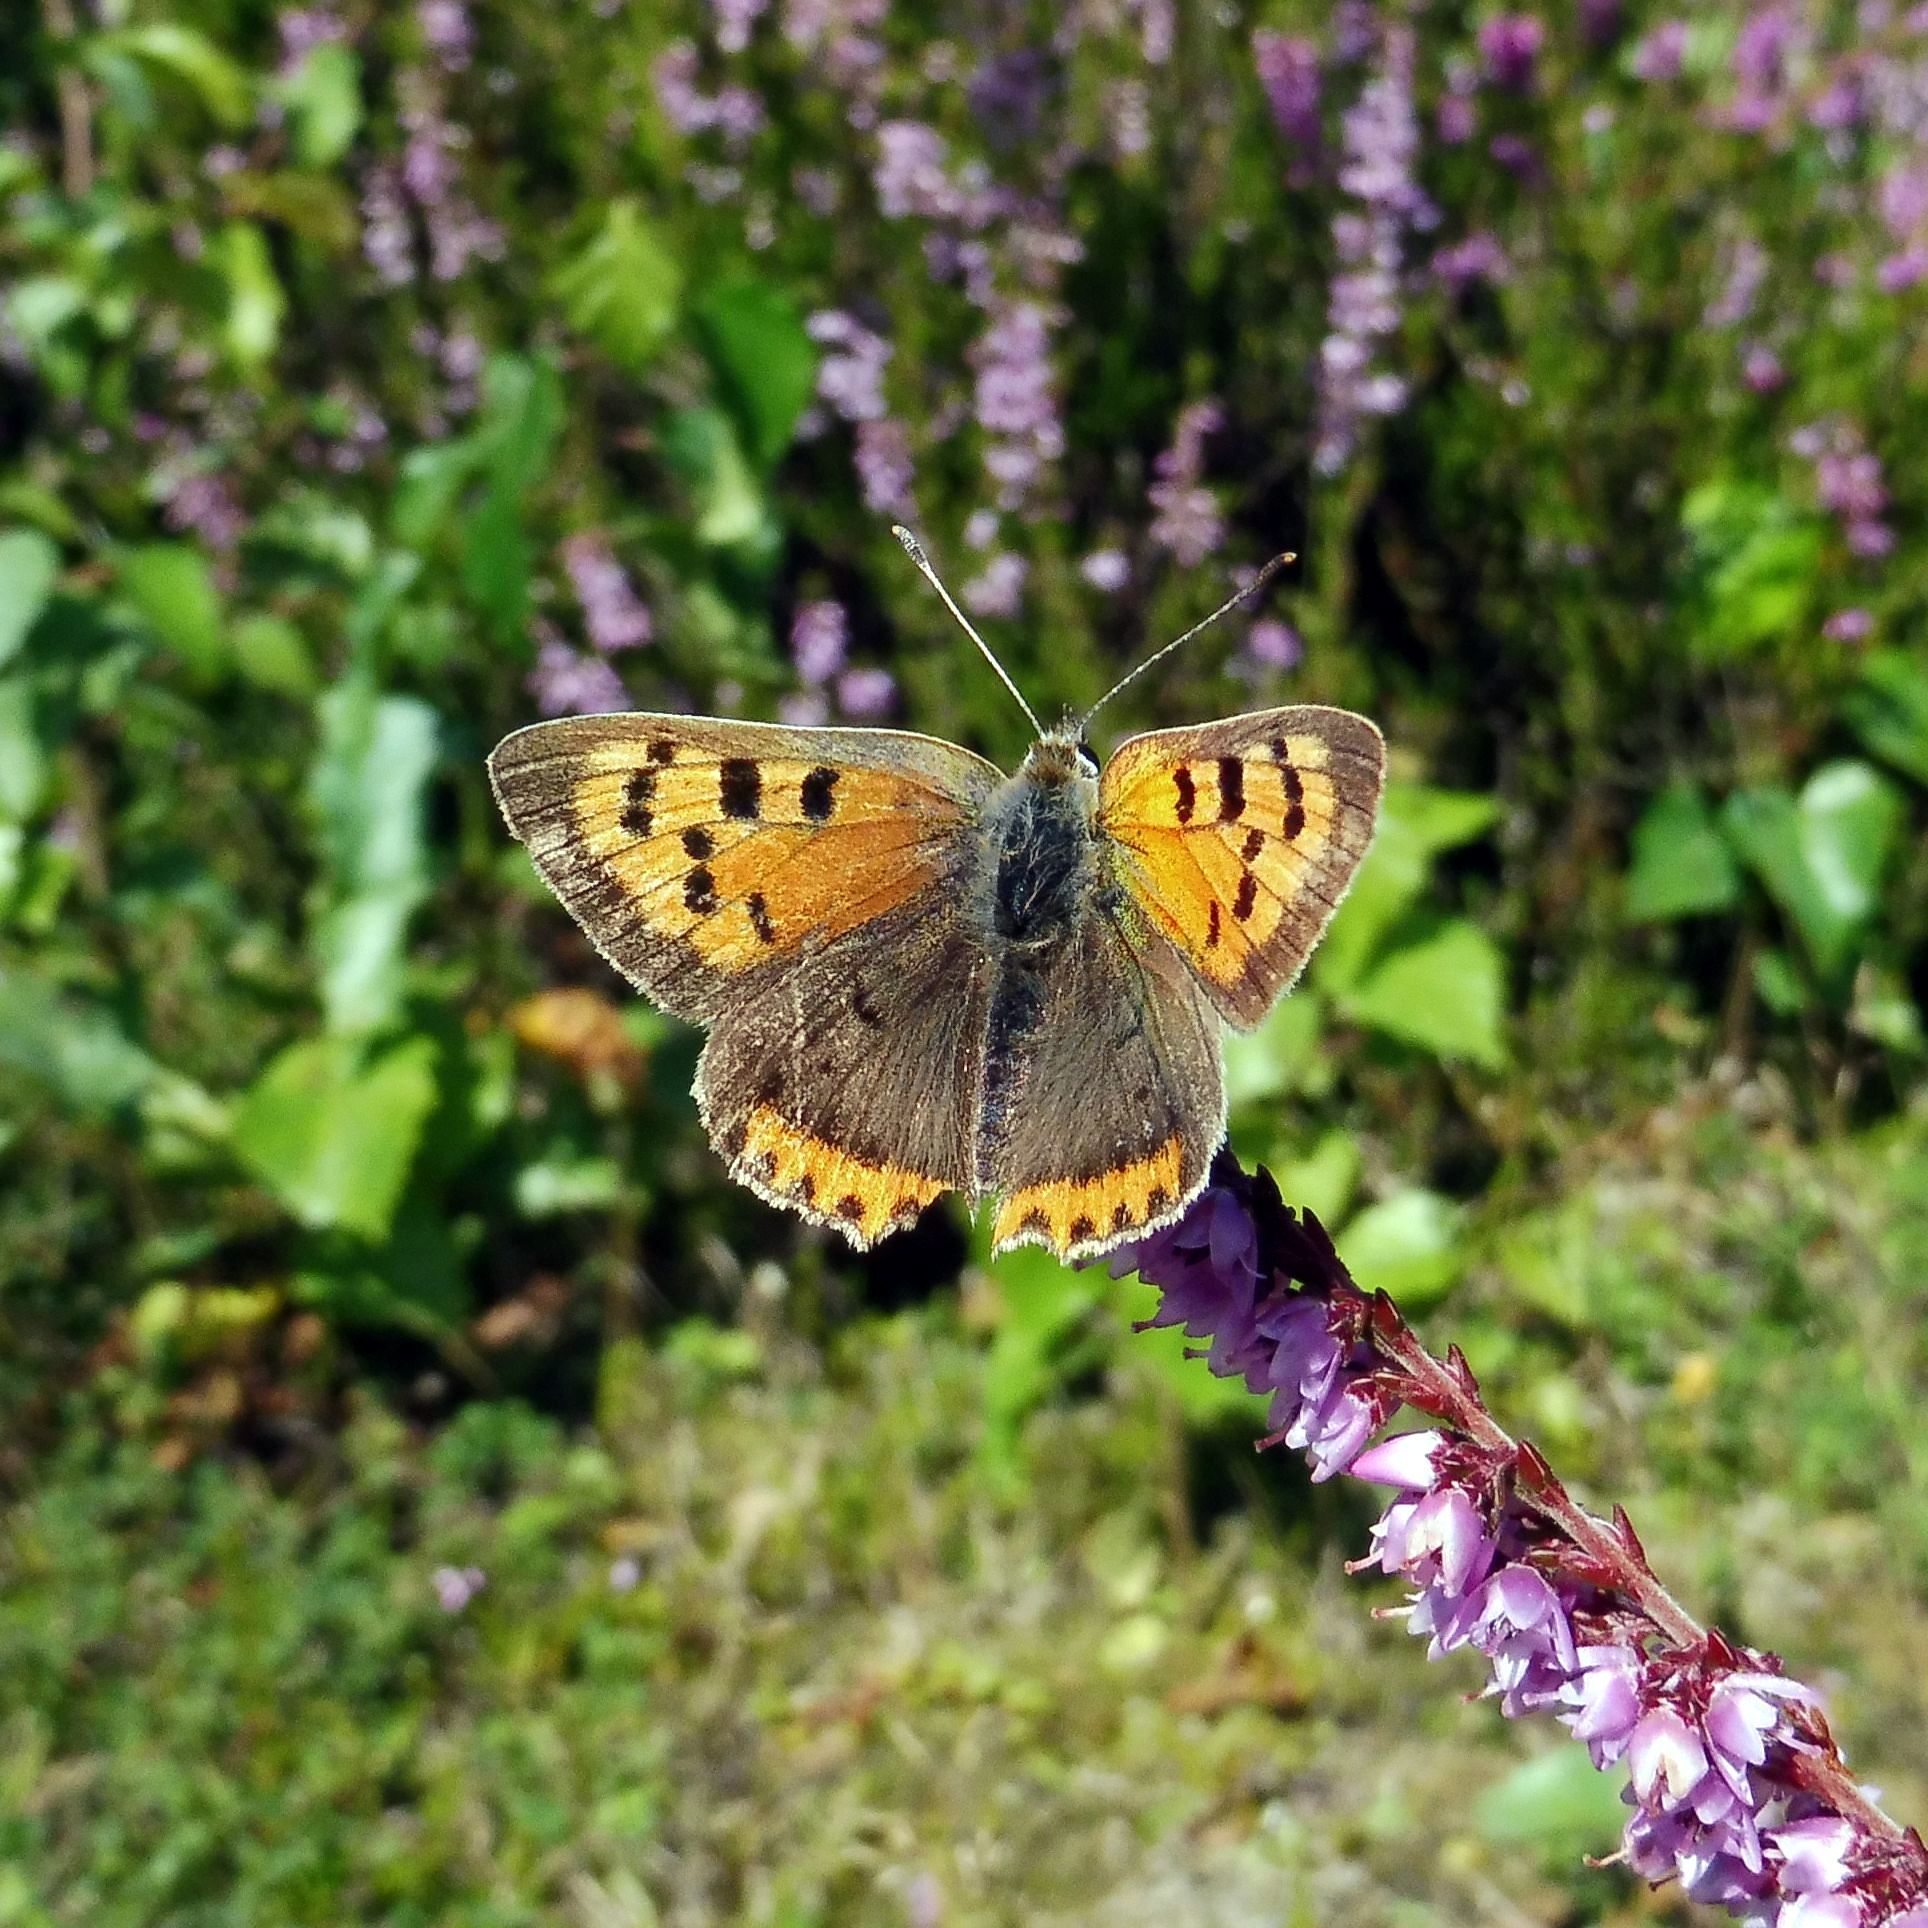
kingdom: Animalia
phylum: Arthropoda
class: Insecta
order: Lepidoptera
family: Lycaenidae
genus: Lycaena
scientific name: Lycaena phlaeas
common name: Small copper
